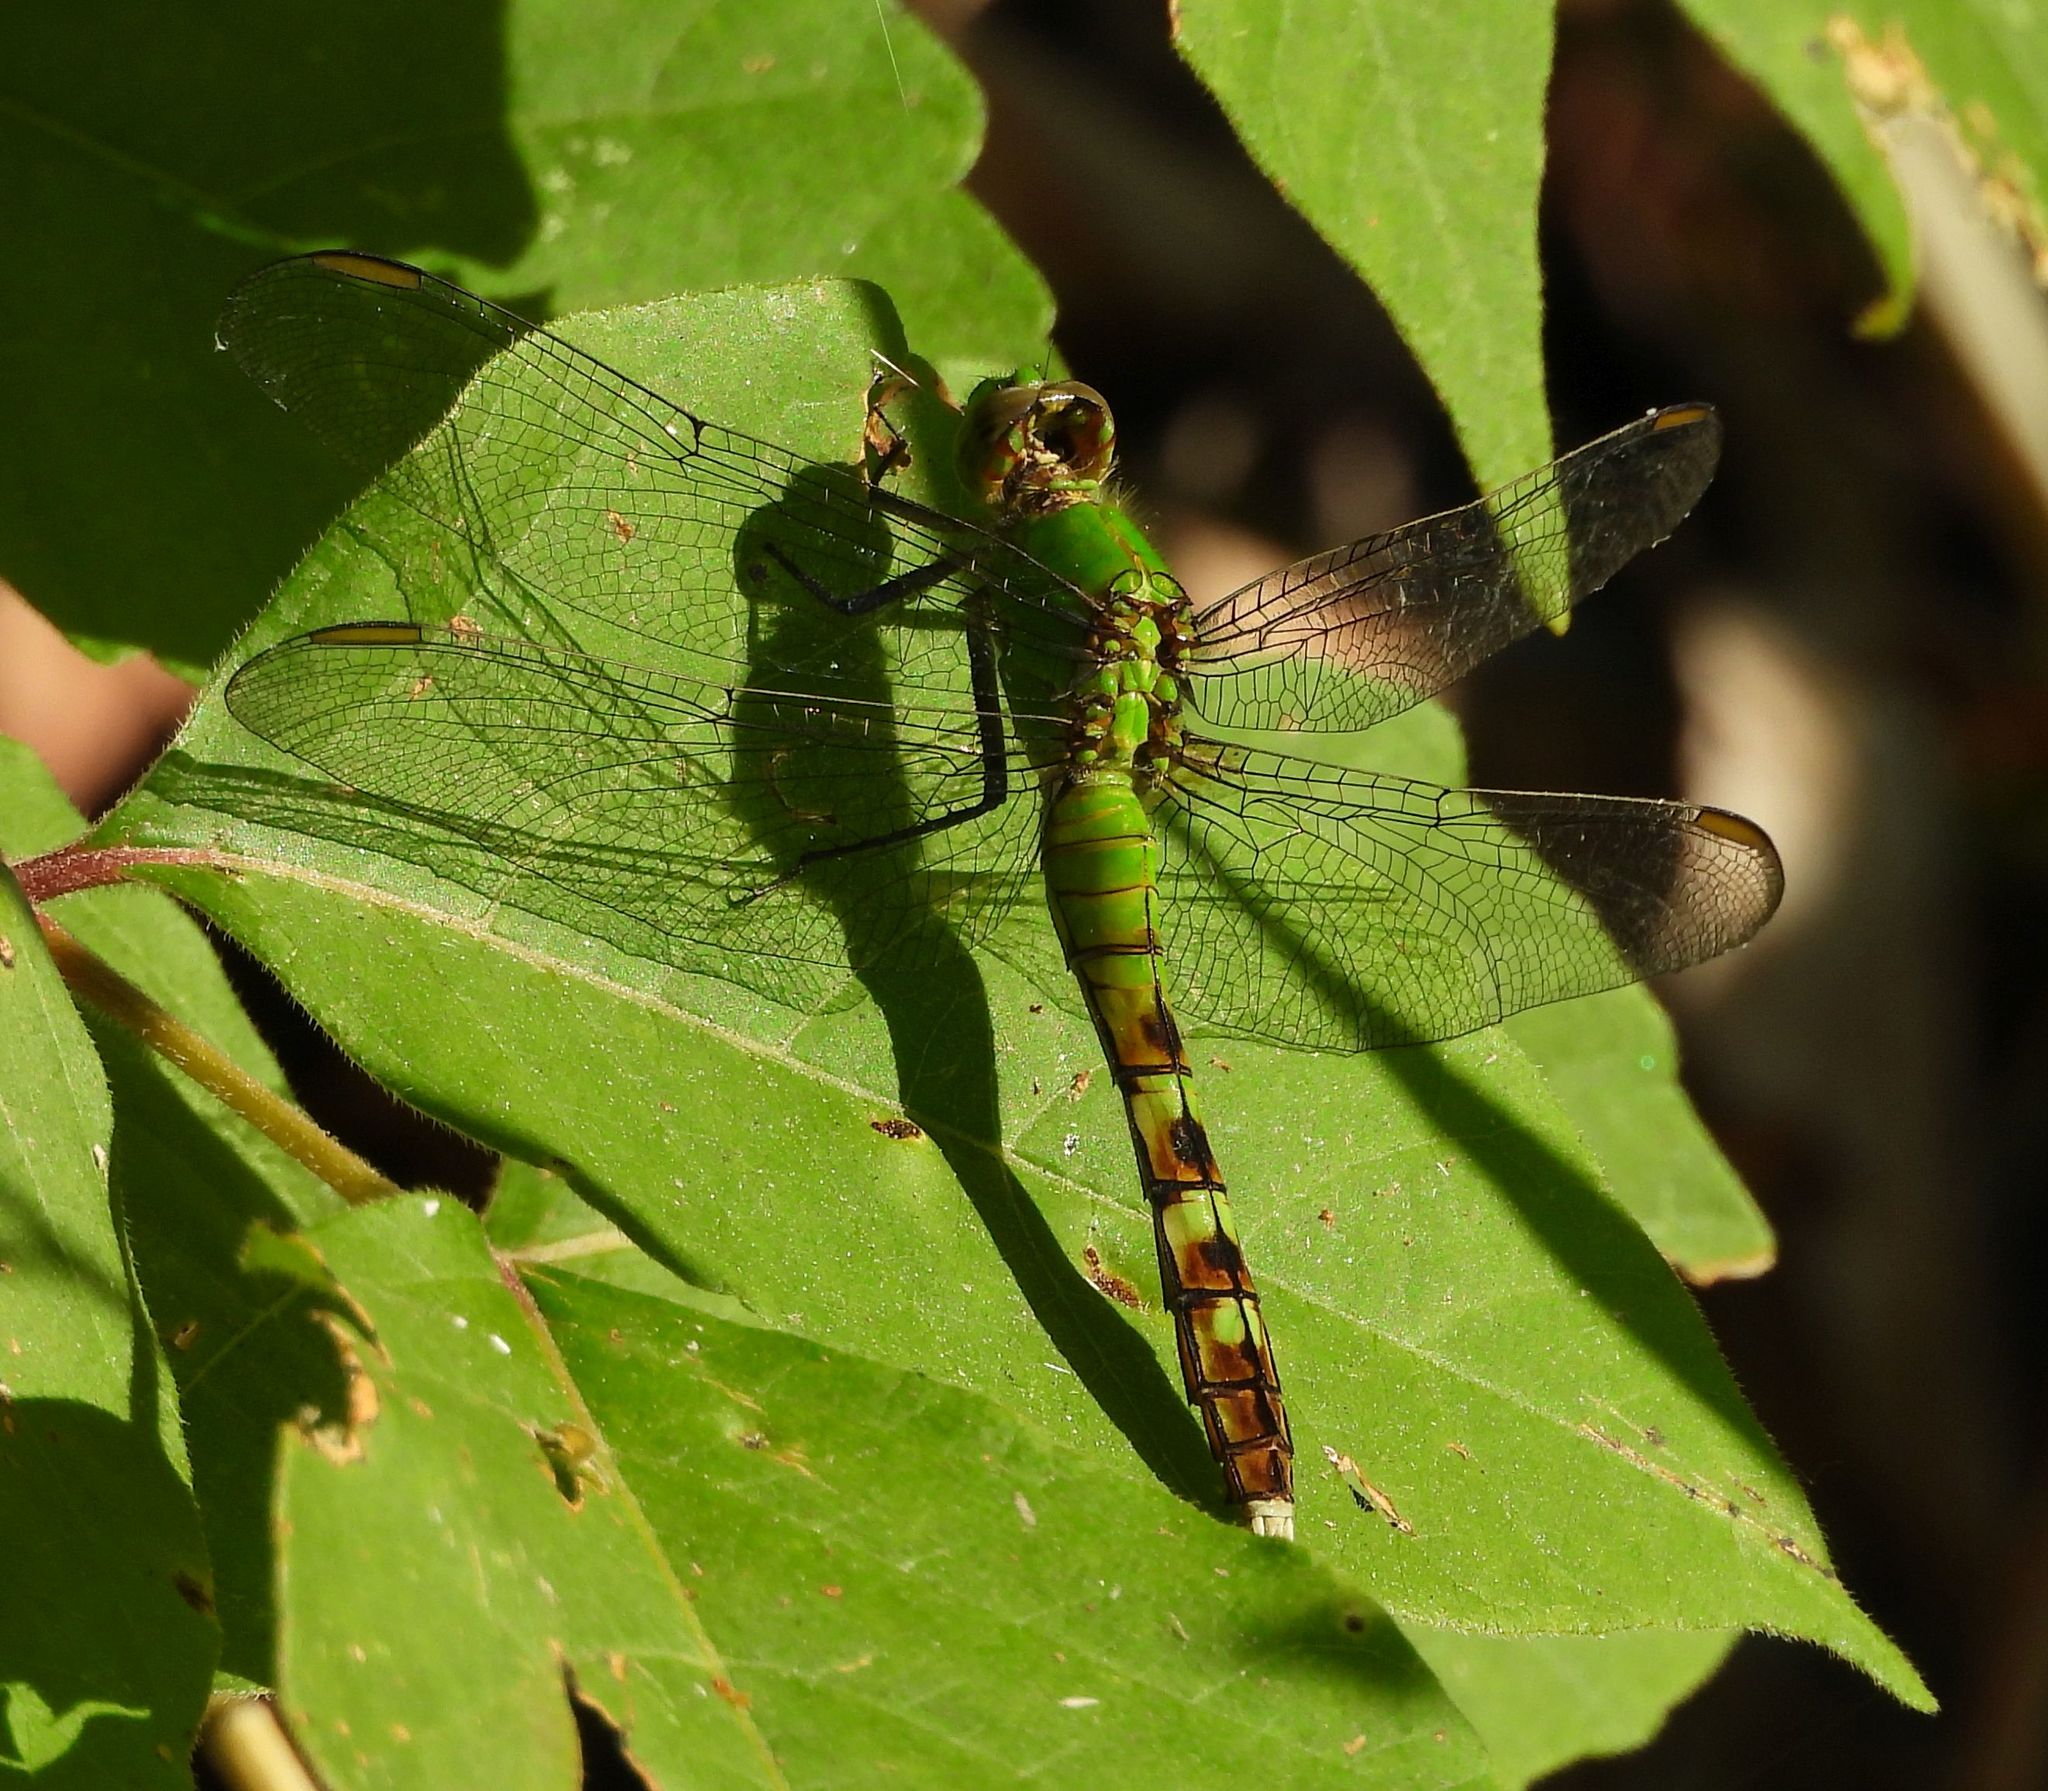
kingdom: Animalia
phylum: Arthropoda
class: Insecta
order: Odonata
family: Libellulidae
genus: Erythemis
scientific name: Erythemis simplicicollis
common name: Eastern pondhawk
